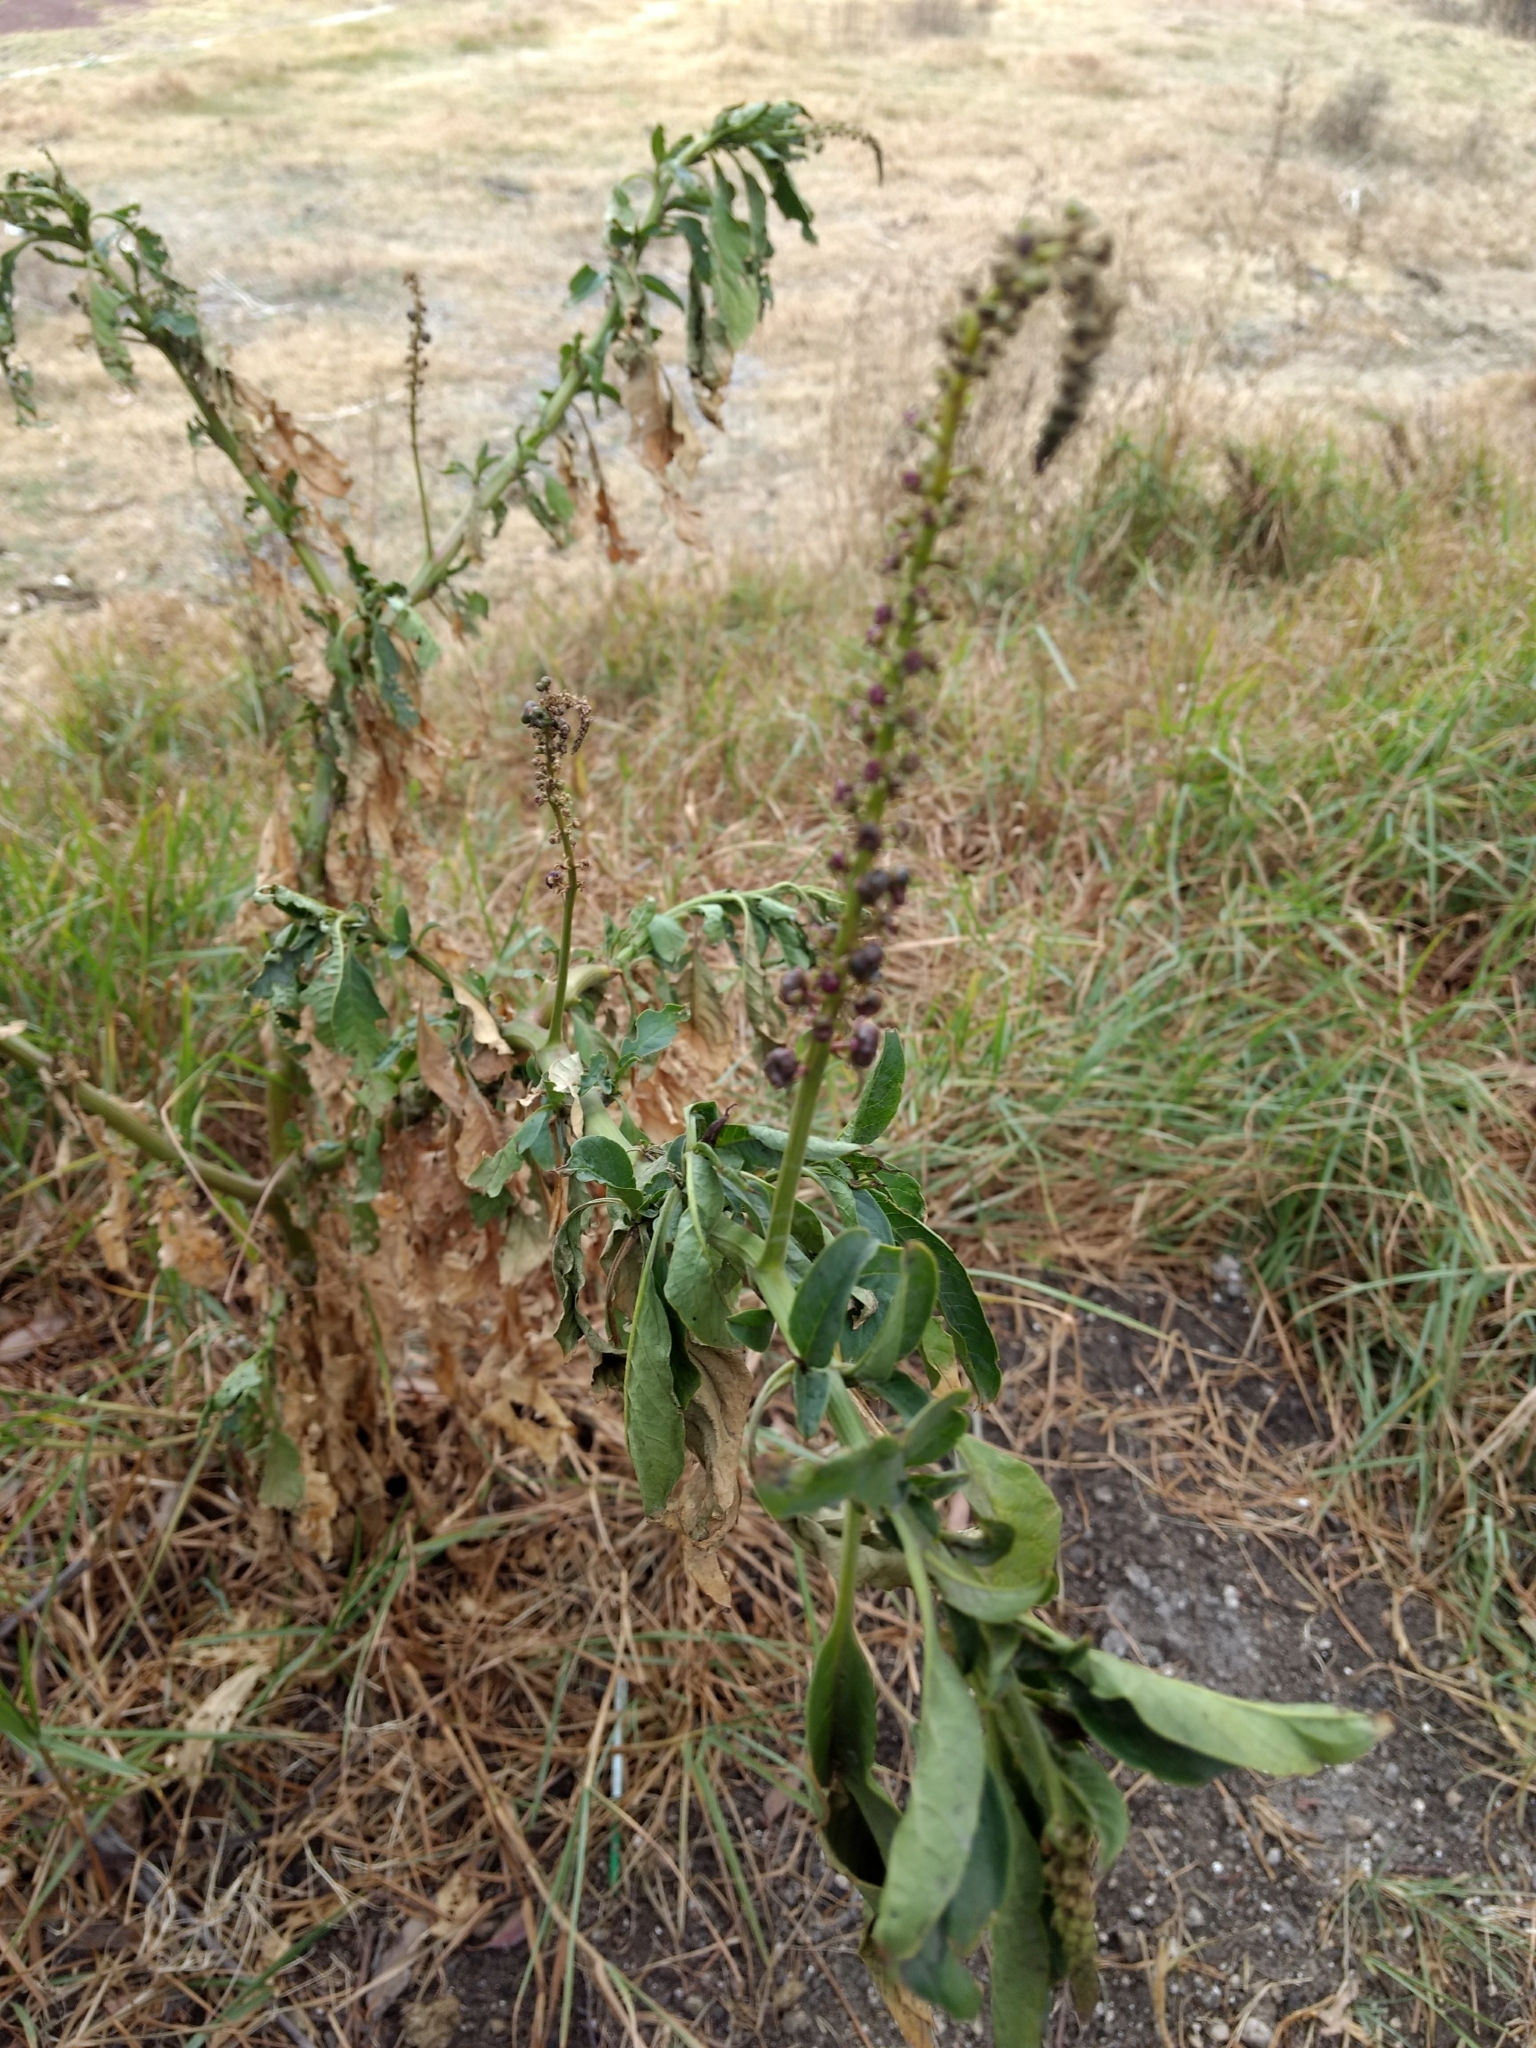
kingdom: Plantae
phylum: Tracheophyta
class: Magnoliopsida
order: Caryophyllales
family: Phytolaccaceae
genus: Phytolacca
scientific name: Phytolacca icosandra
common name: Button pokeweed
